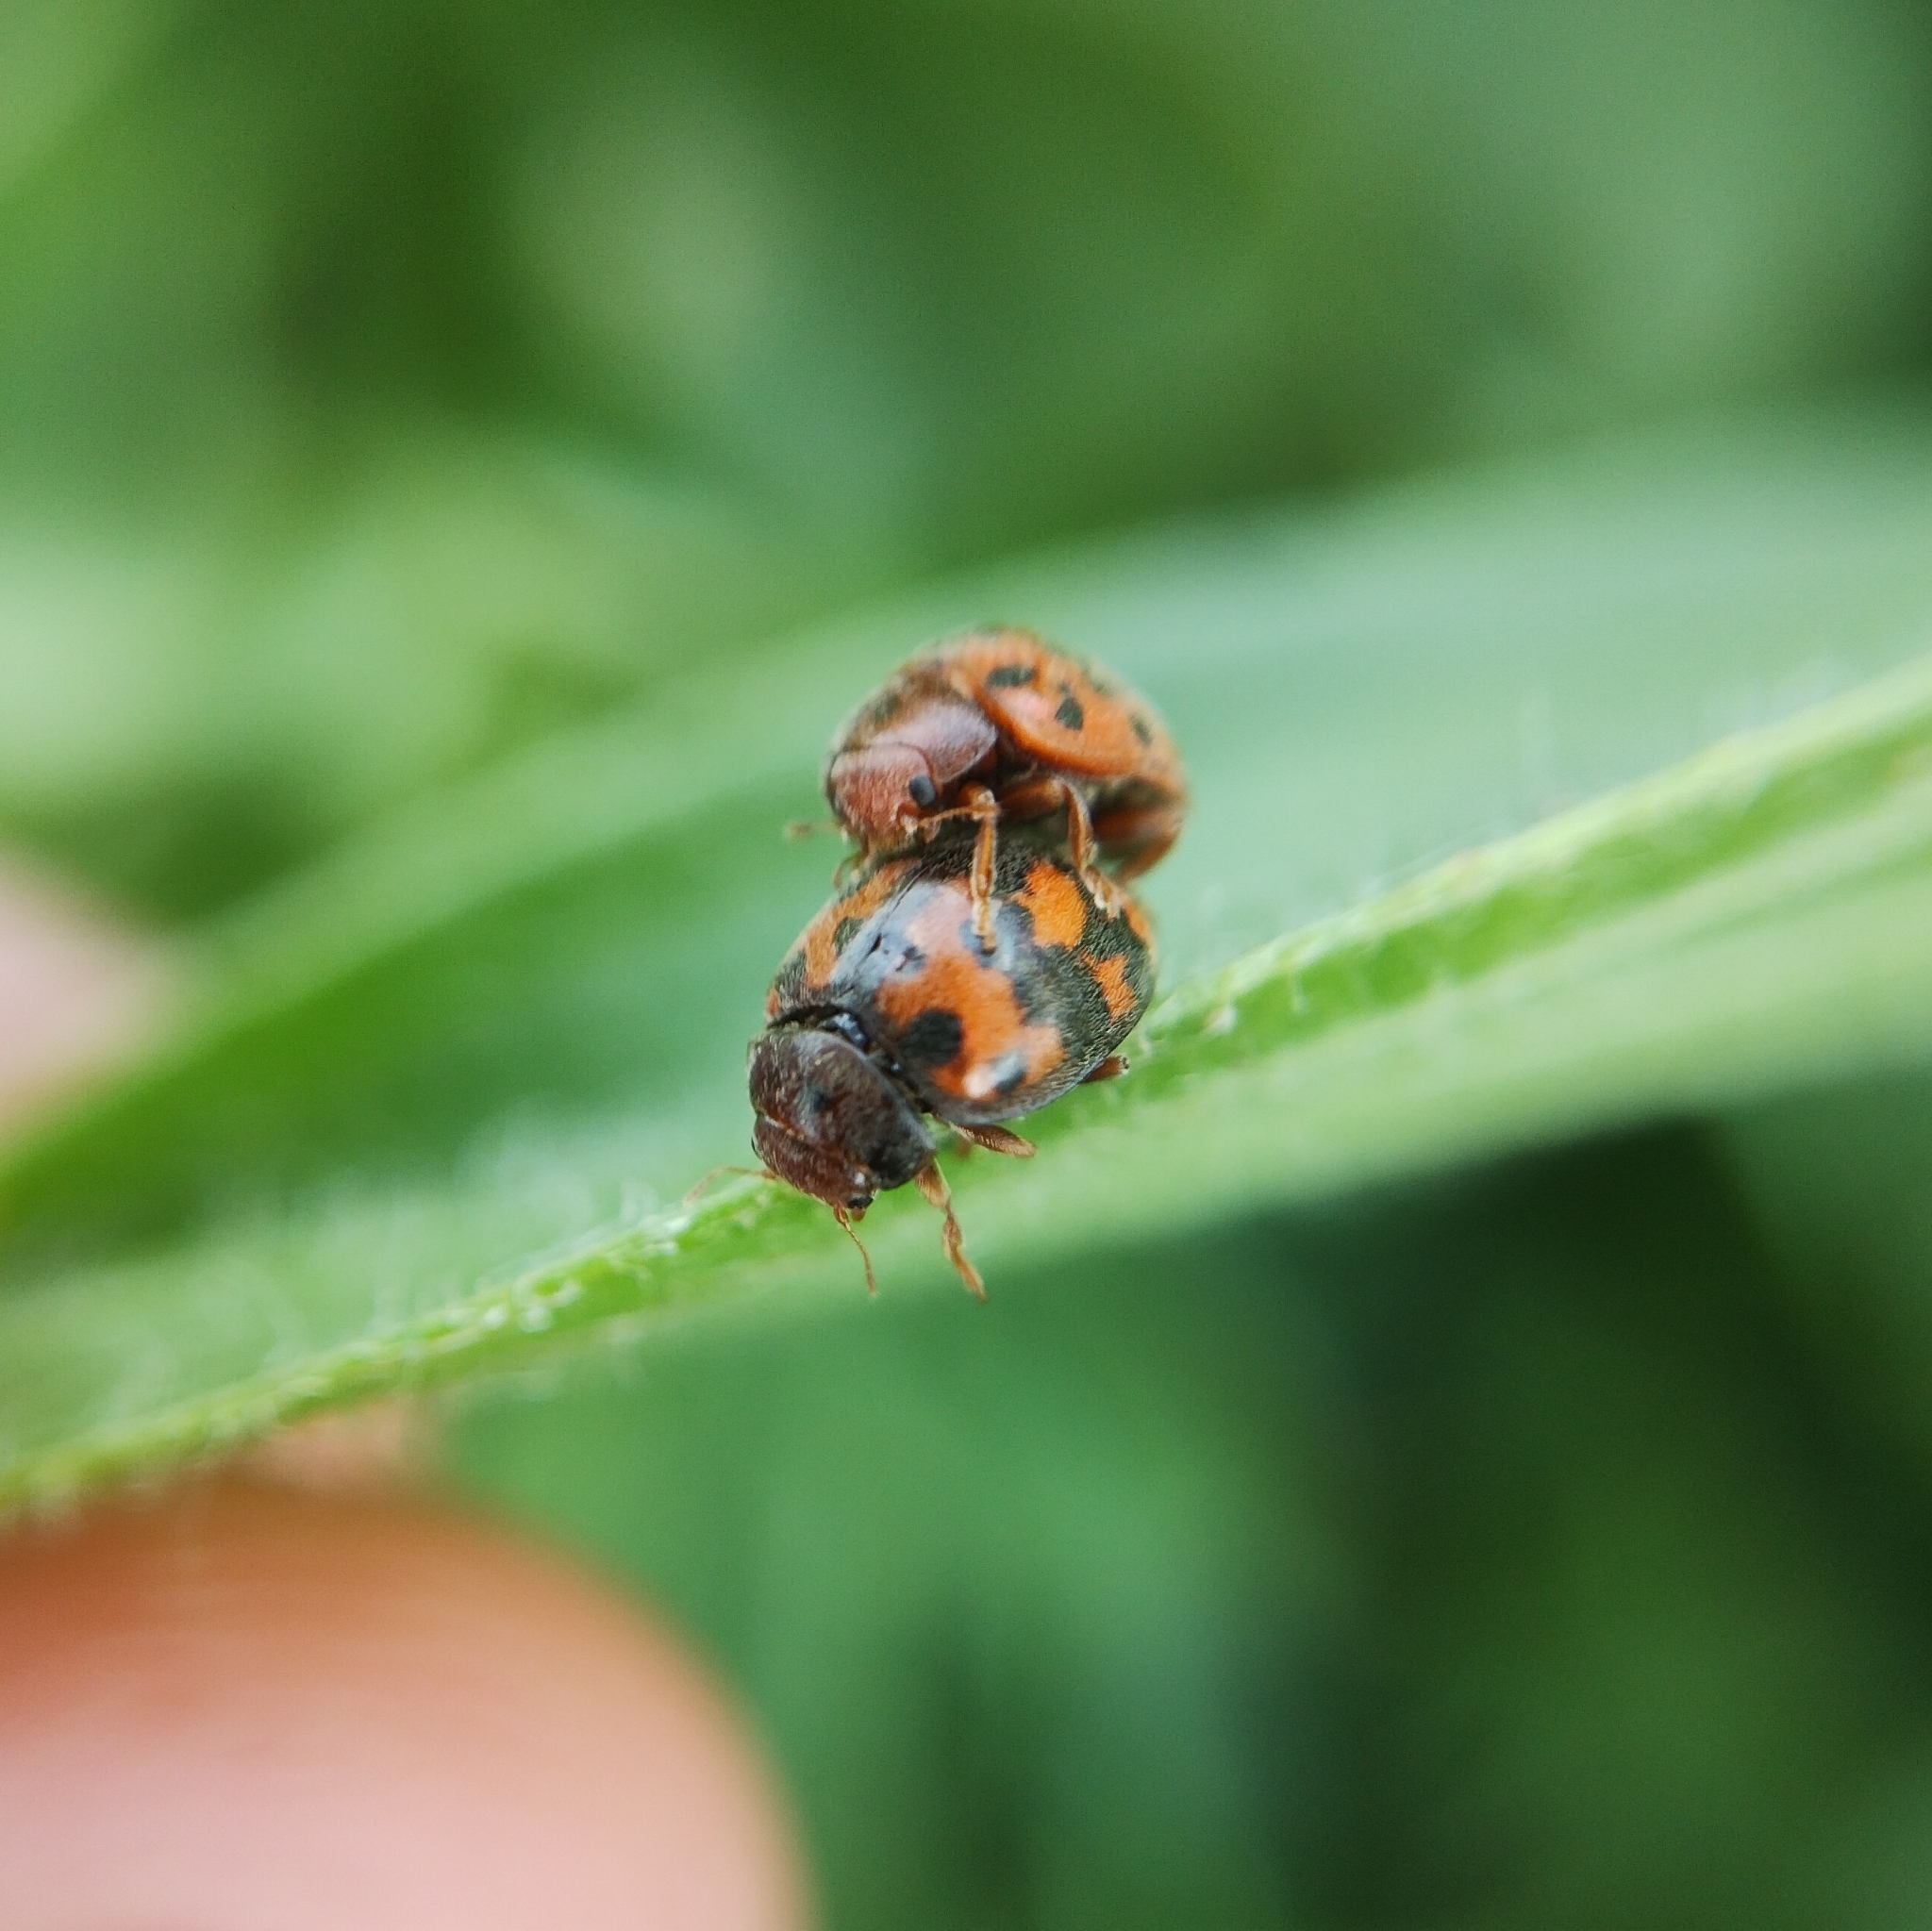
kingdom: Animalia
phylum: Arthropoda
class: Insecta
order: Coleoptera
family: Coccinellidae
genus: Subcoccinella
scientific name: Subcoccinella vigintiquatuorpunctata
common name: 24-spot ladybird
